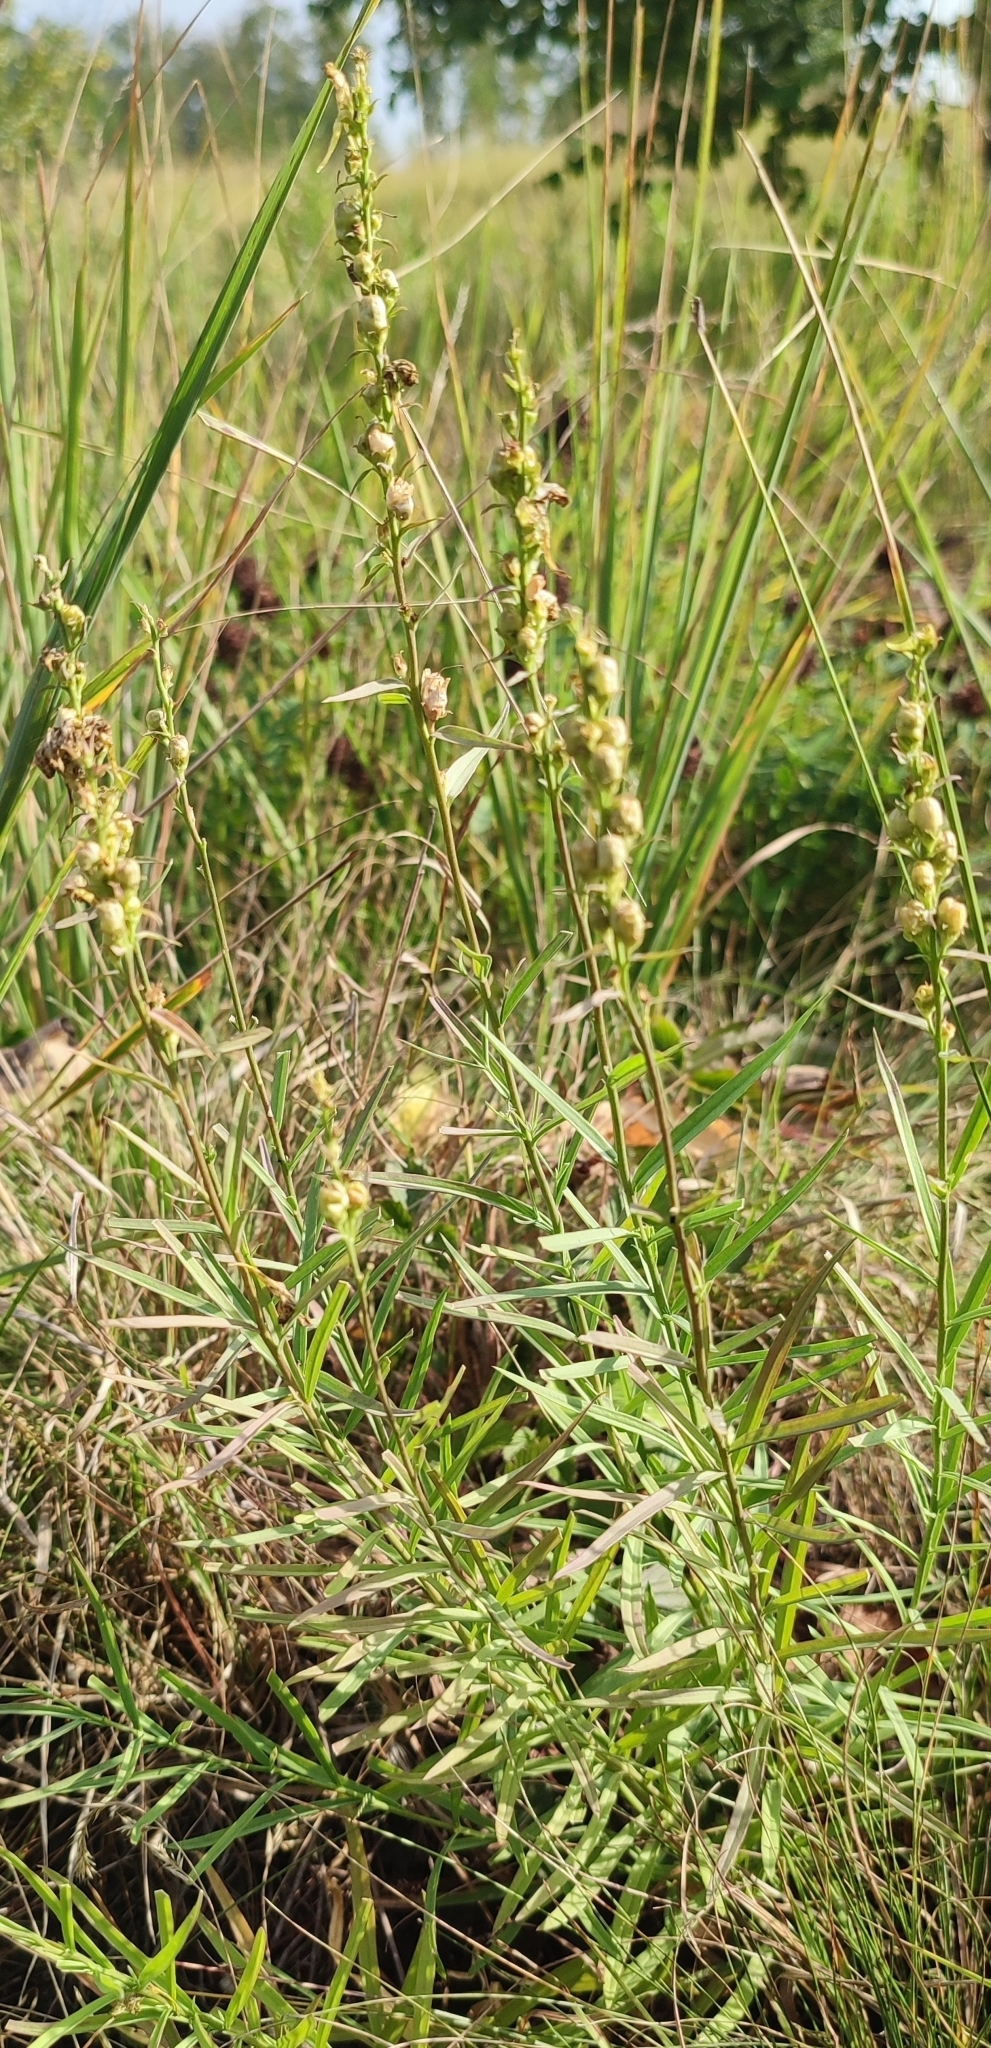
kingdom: Plantae
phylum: Tracheophyta
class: Magnoliopsida
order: Lamiales
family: Plantaginaceae
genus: Linaria
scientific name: Linaria vulgaris
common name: Butter and eggs
